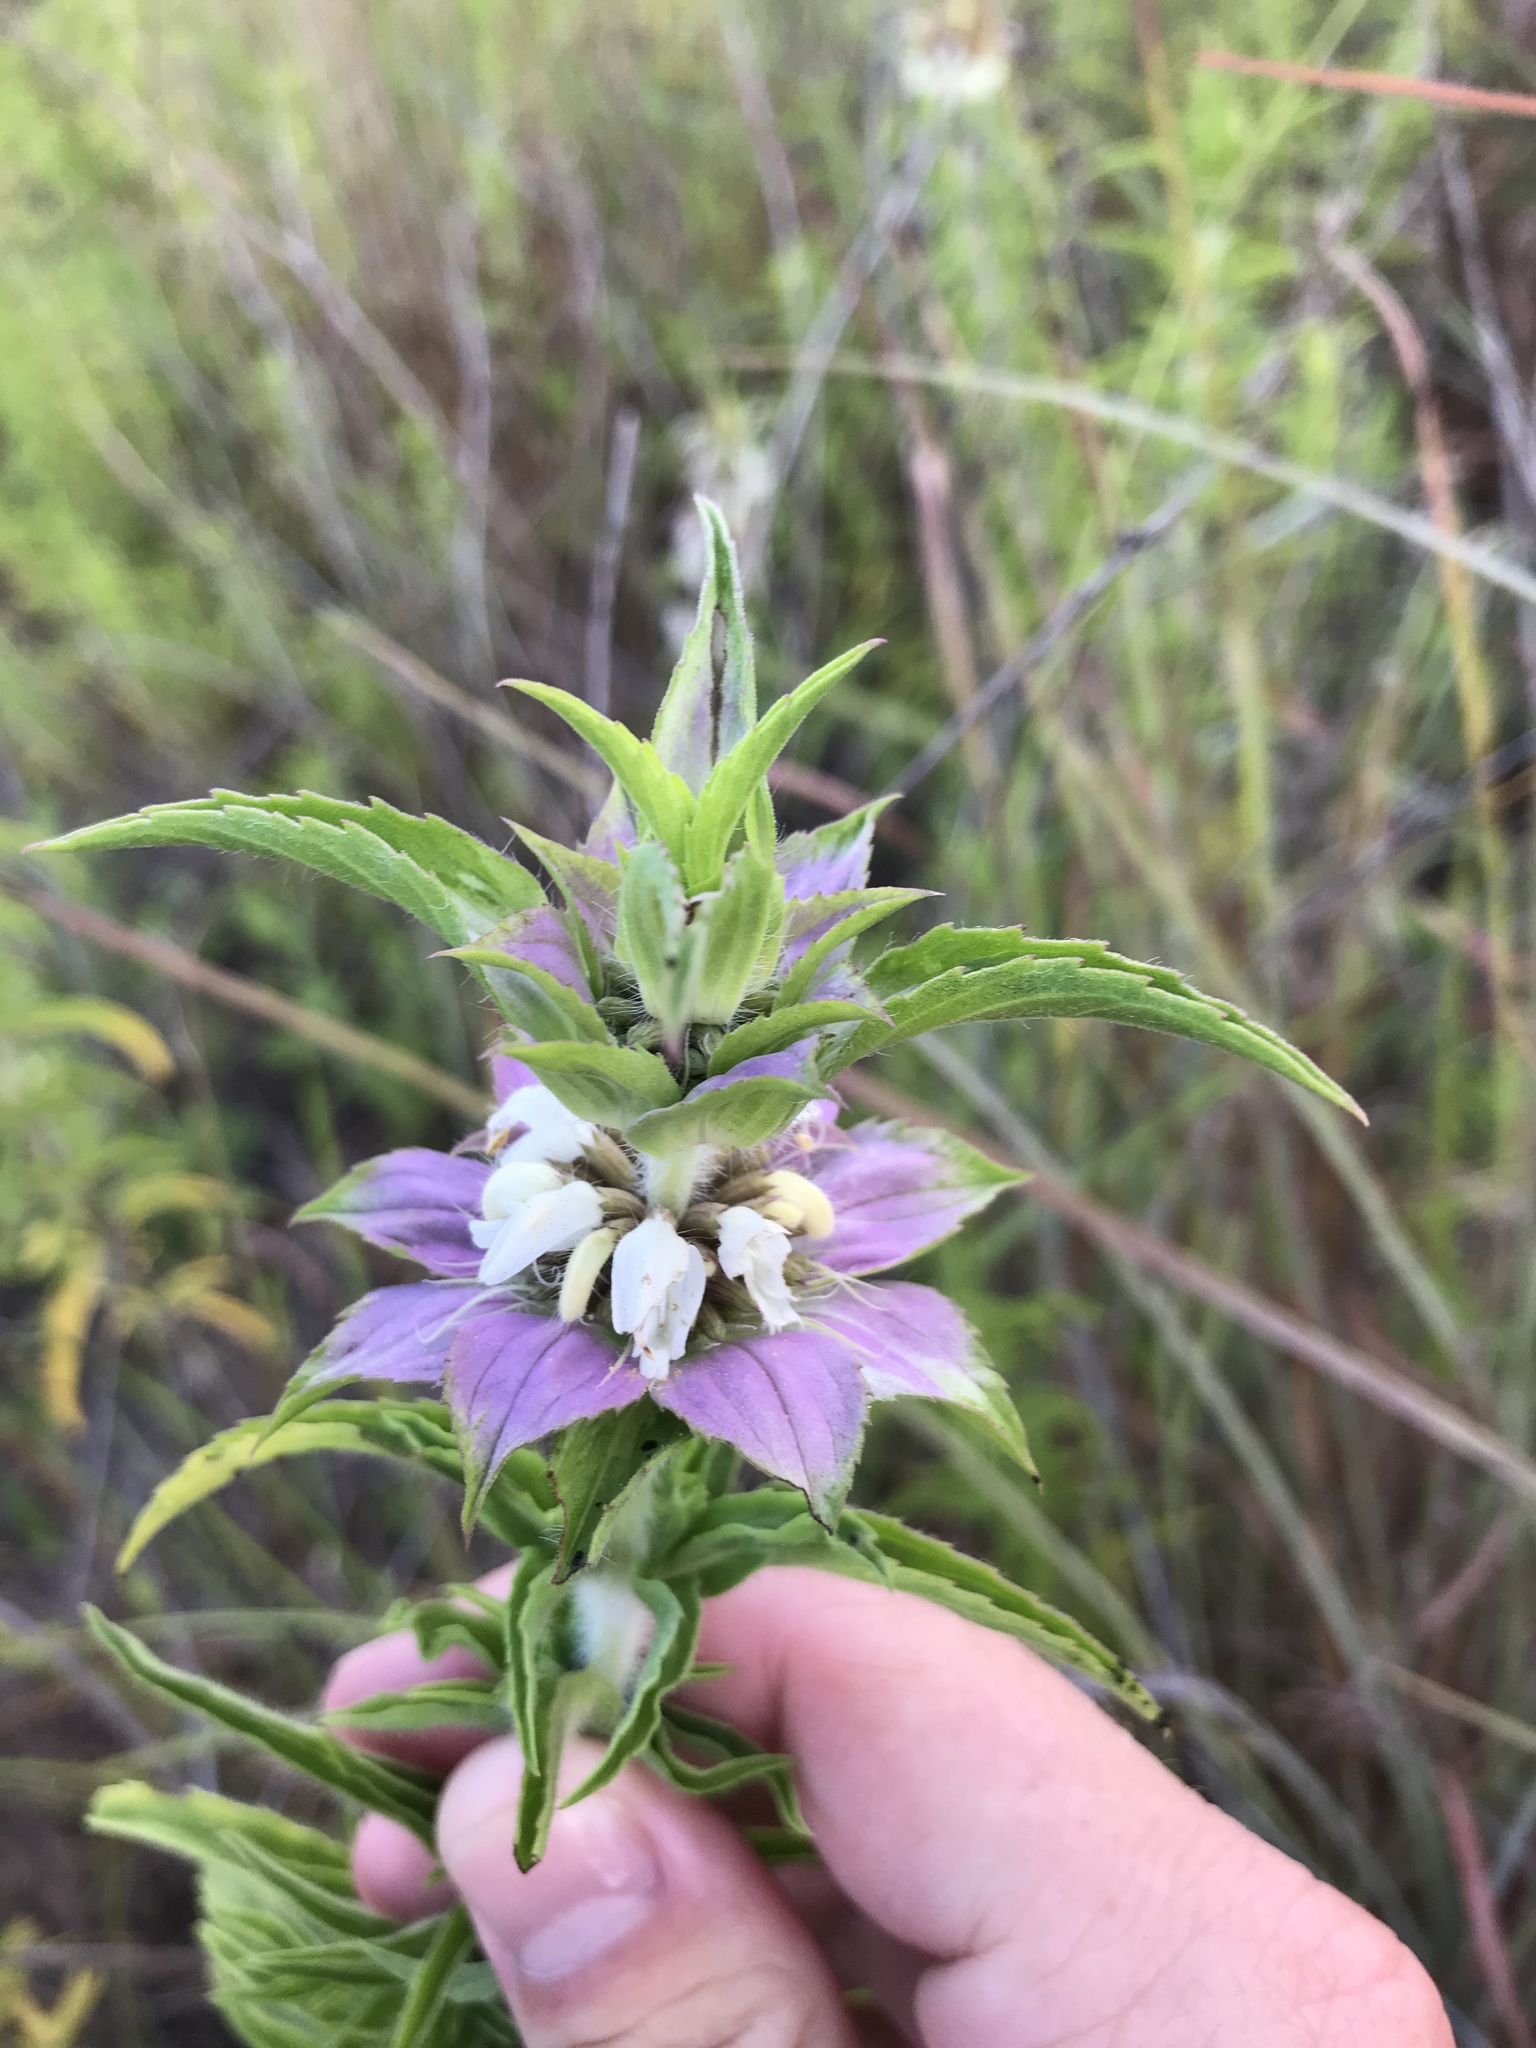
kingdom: Plantae
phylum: Tracheophyta
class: Magnoliopsida
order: Lamiales
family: Lamiaceae
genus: Monarda
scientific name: Monarda maritima
